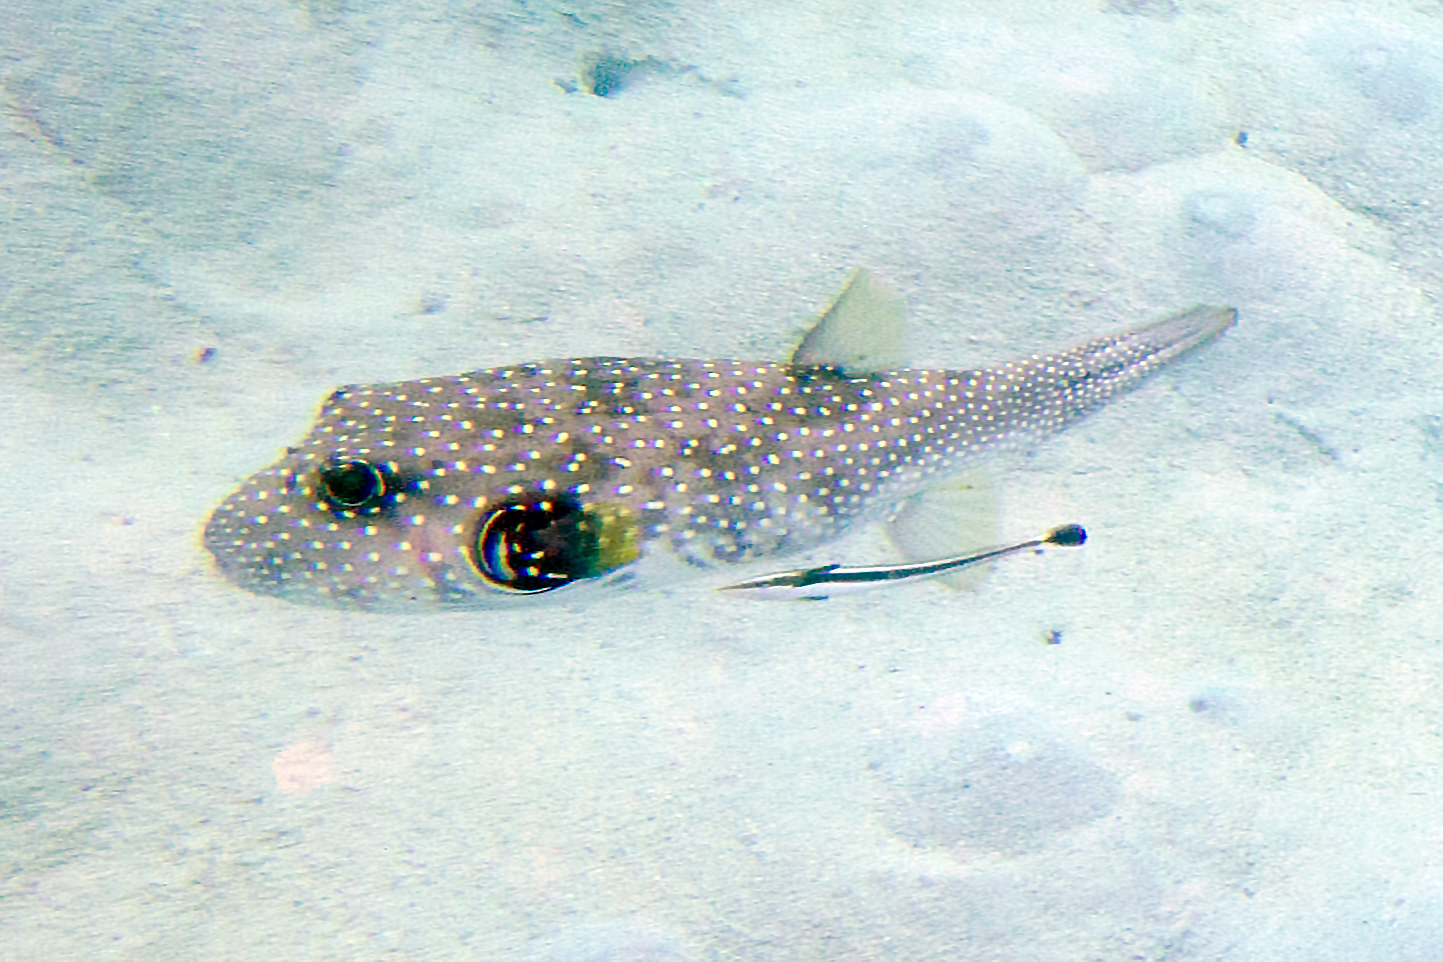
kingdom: Animalia
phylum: Chordata
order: Tetraodontiformes
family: Tetraodontidae
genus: Arothron
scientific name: Arothron hispidus
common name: Stripebelly puffer
